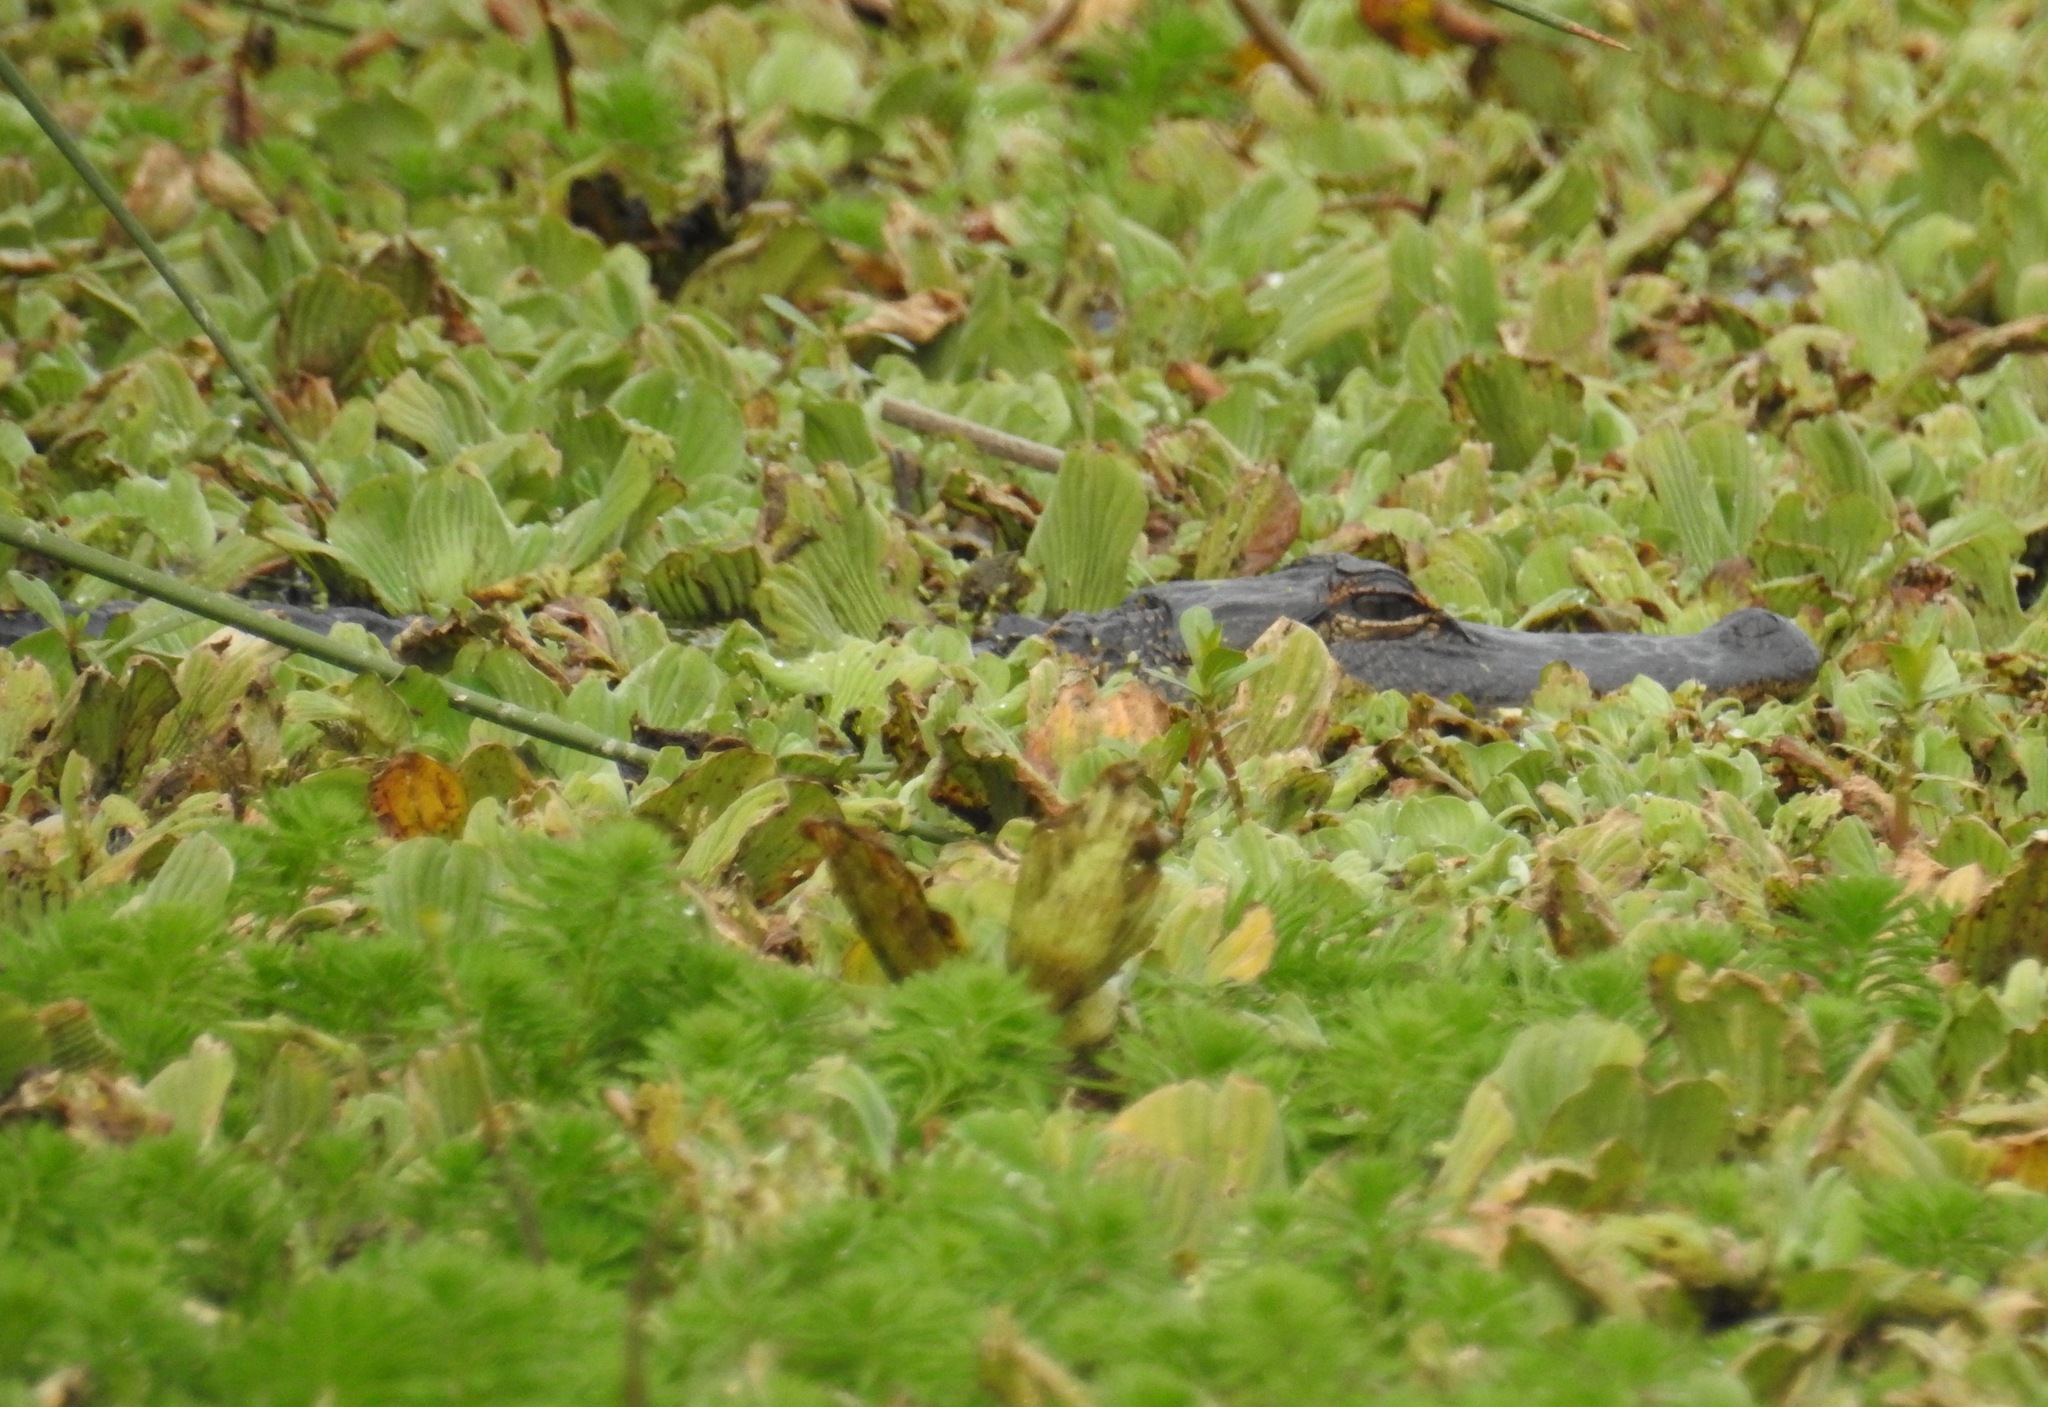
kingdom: Animalia
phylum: Chordata
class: Crocodylia
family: Alligatoridae
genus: Alligator
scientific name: Alligator mississippiensis
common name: American alligator
